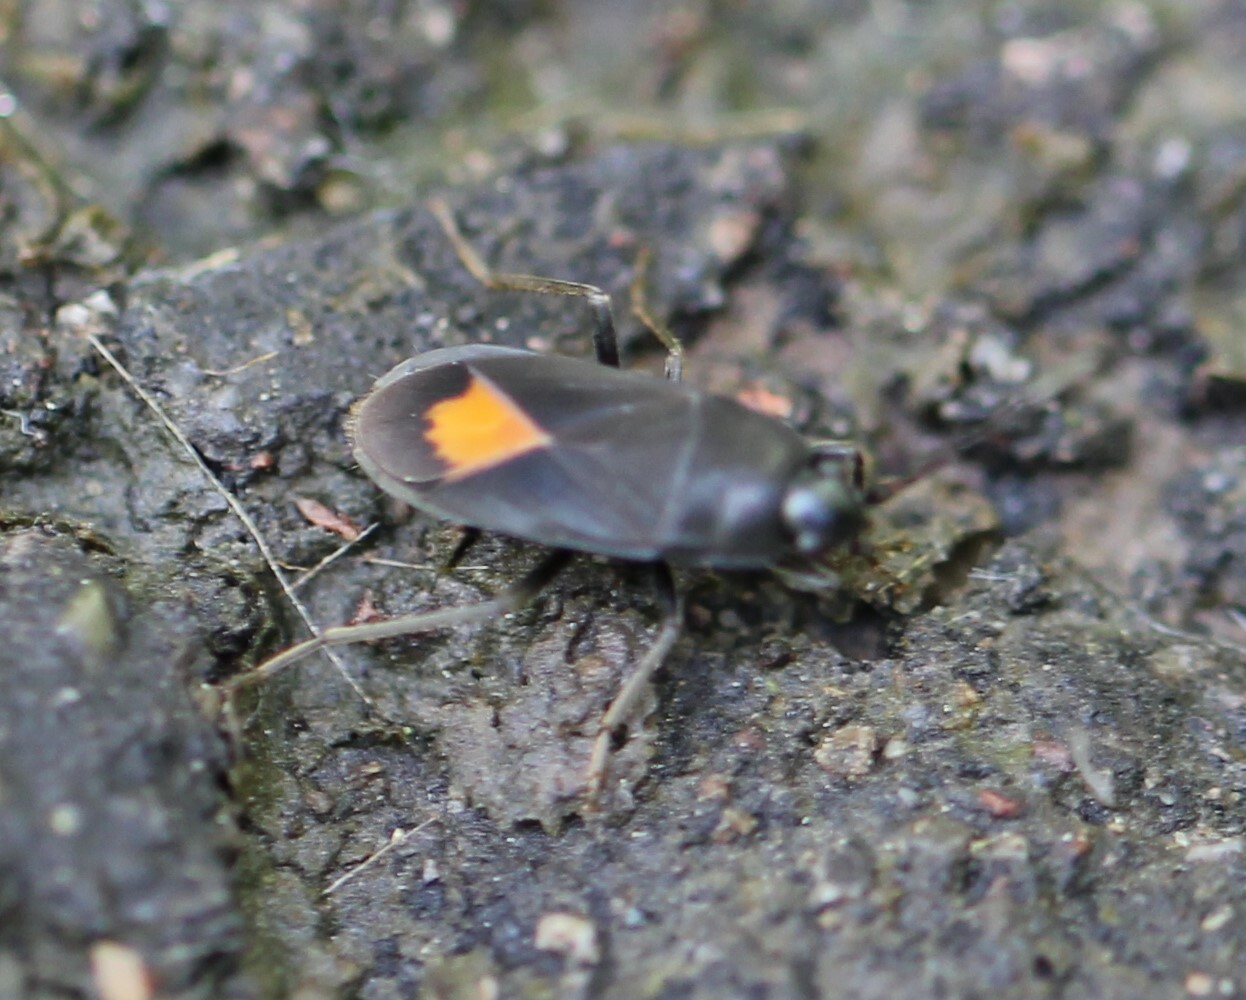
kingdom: Animalia
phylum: Arthropoda
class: Insecta
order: Hemiptera
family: Rhyparochromidae
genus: Aphanus
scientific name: Aphanus rolandri
